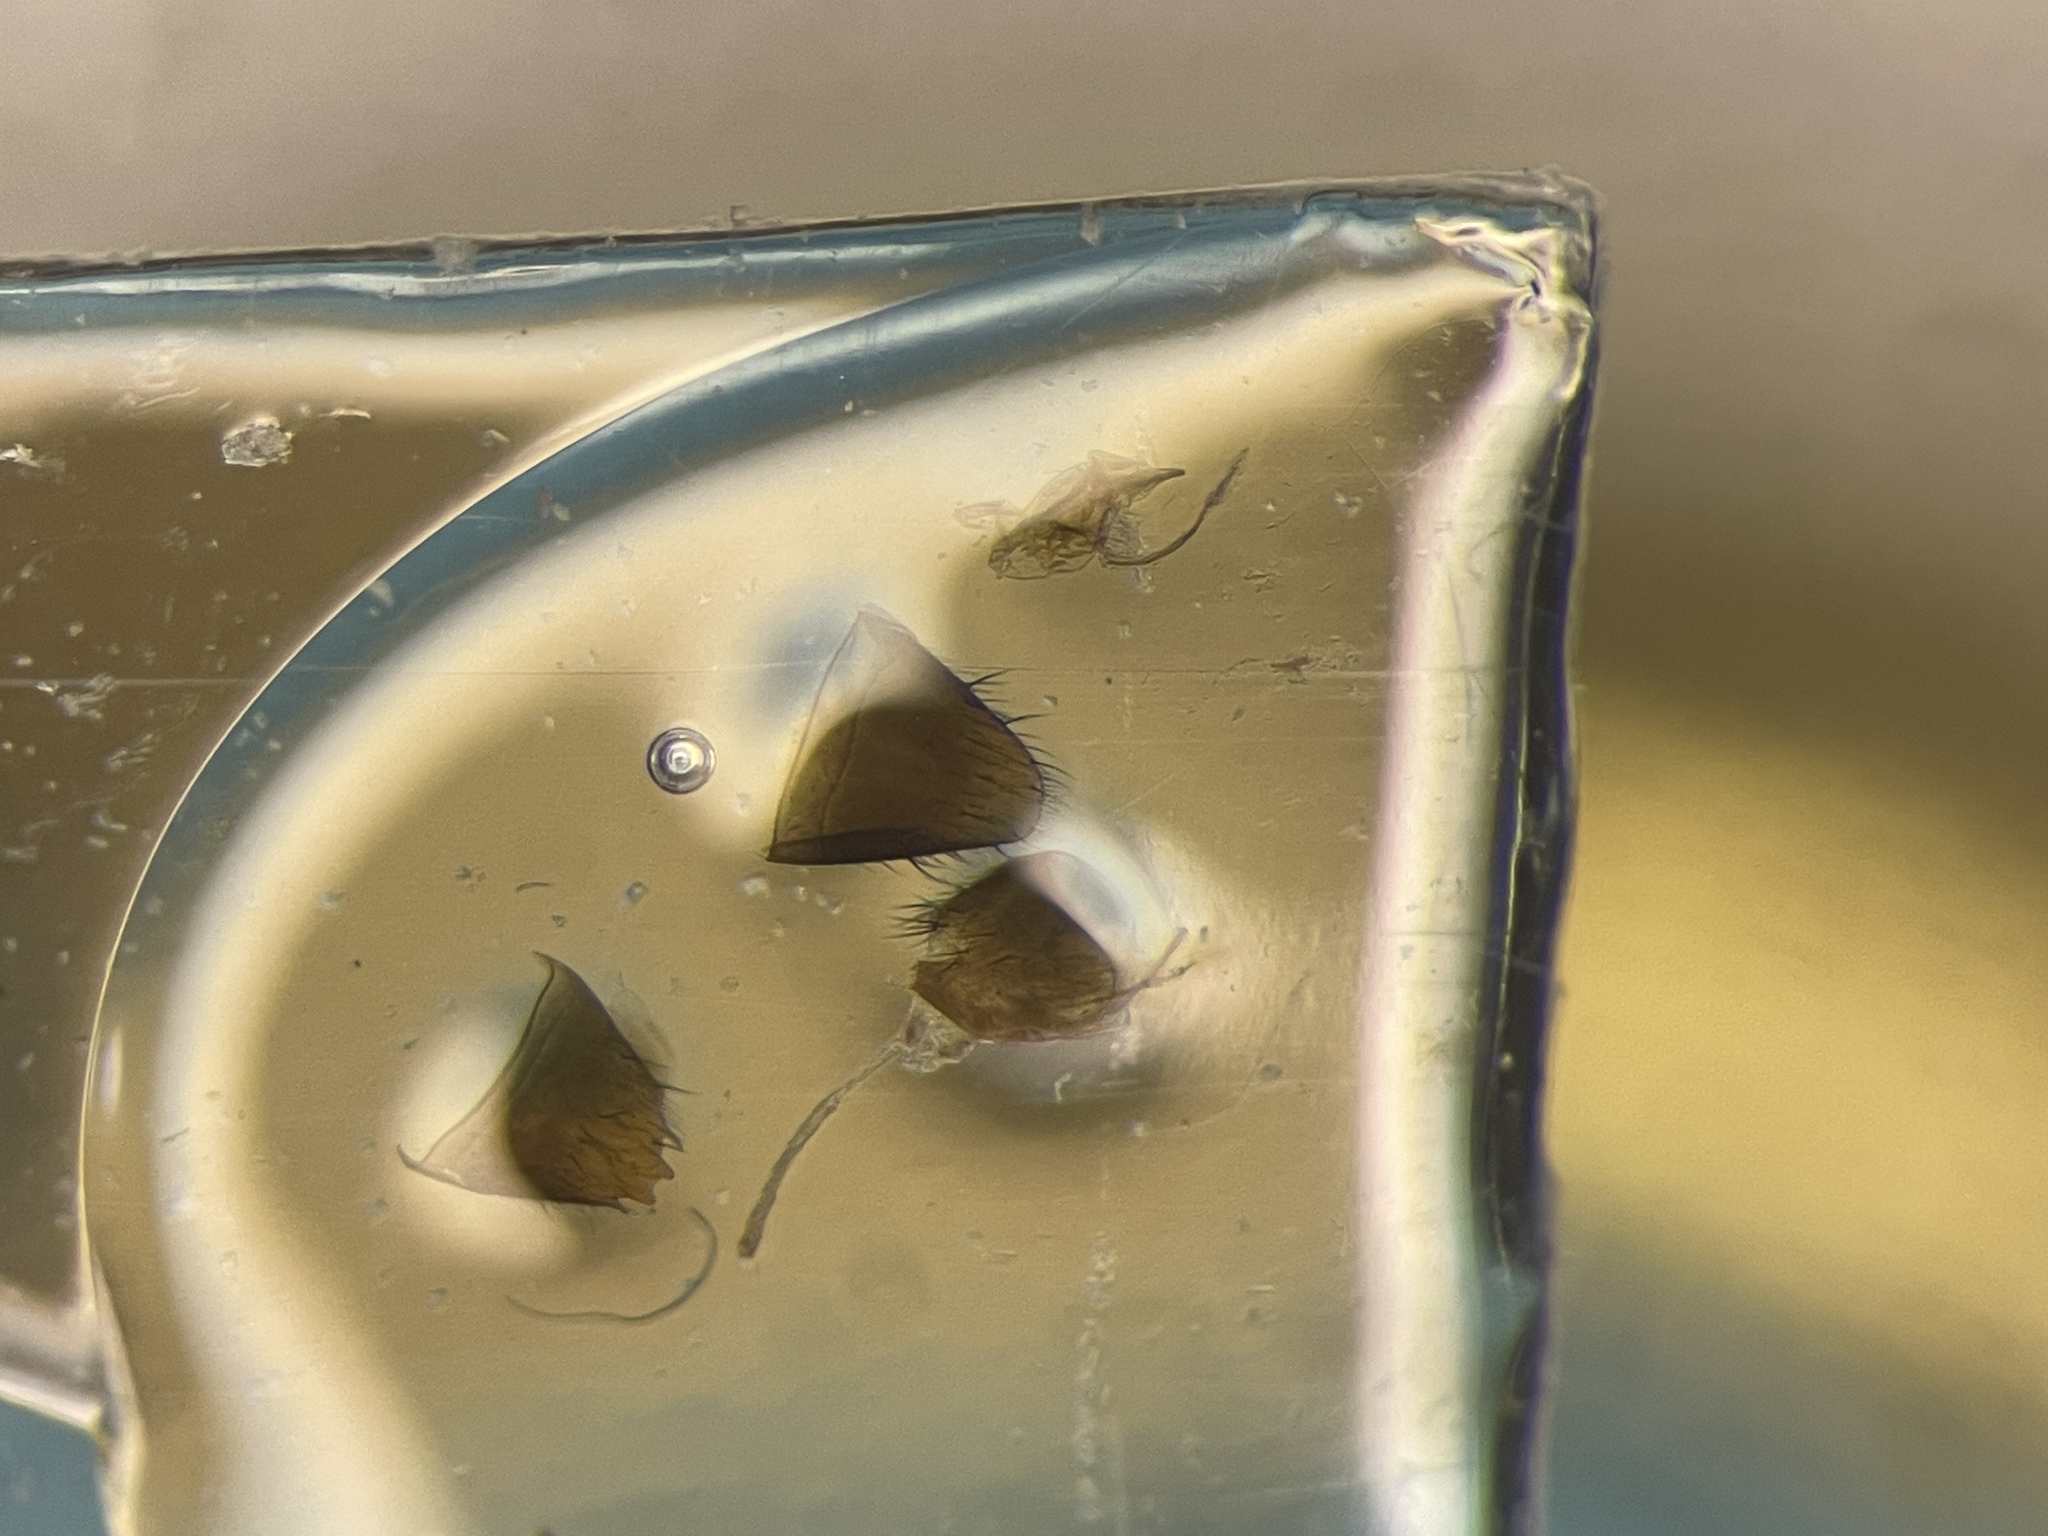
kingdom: Animalia
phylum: Arthropoda
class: Insecta
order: Coleoptera
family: Staphylinidae
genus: Thamiaraea
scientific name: Thamiaraea brittoni
